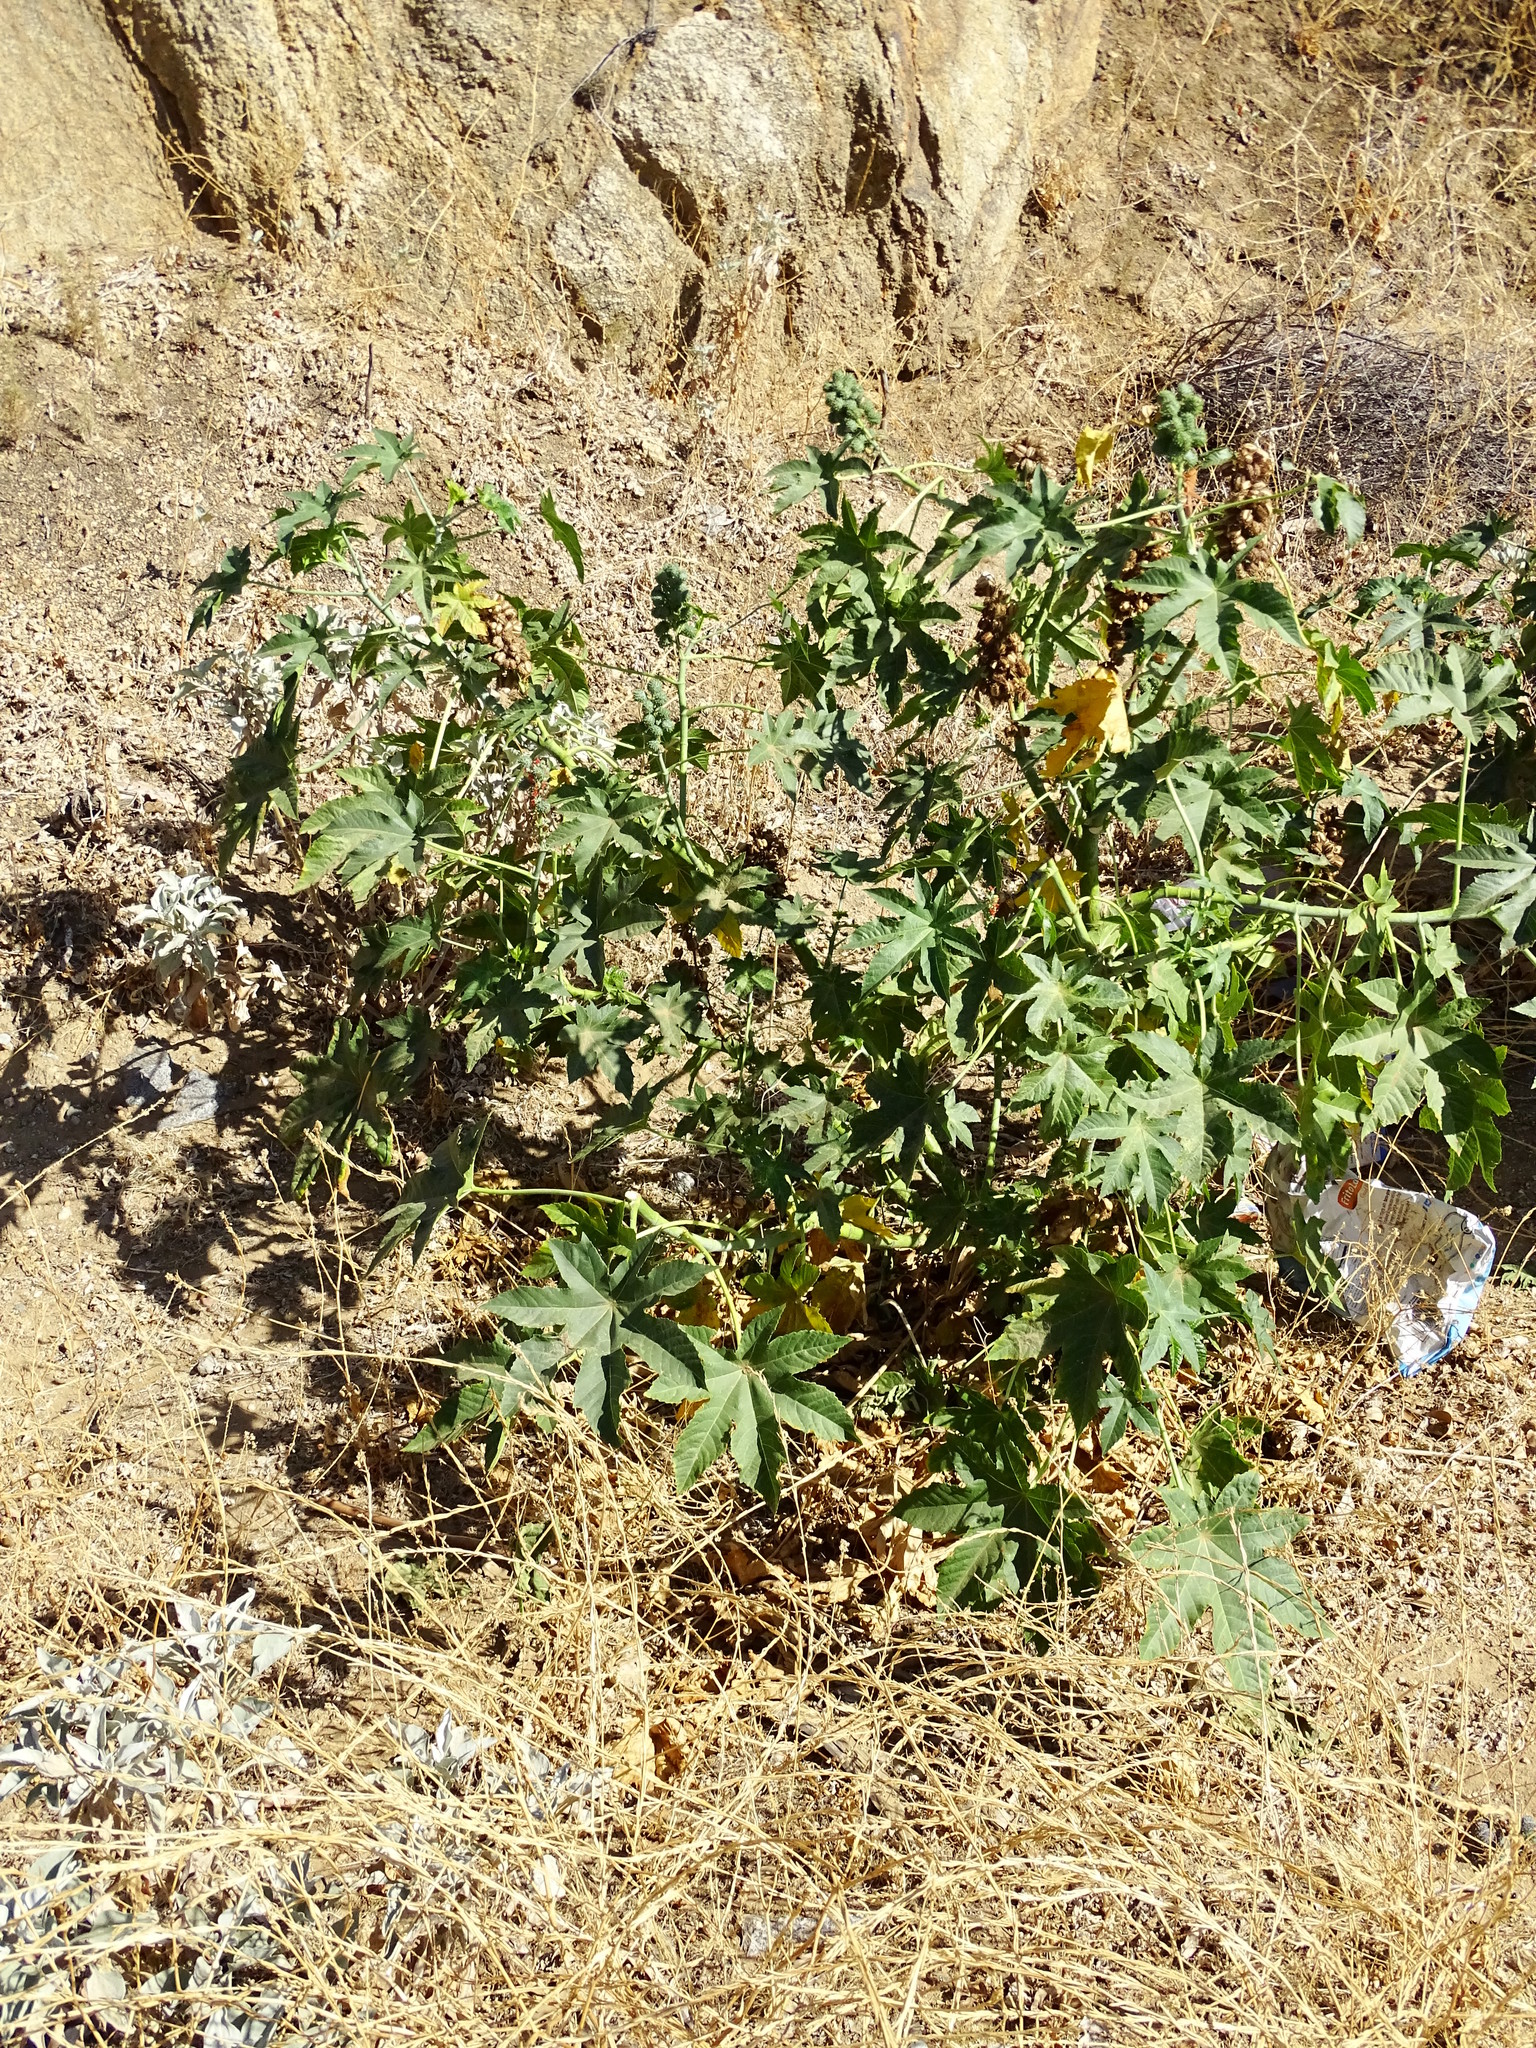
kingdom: Plantae
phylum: Tracheophyta
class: Magnoliopsida
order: Malpighiales
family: Euphorbiaceae
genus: Ricinus
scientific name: Ricinus communis
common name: Castor-oil-plant
